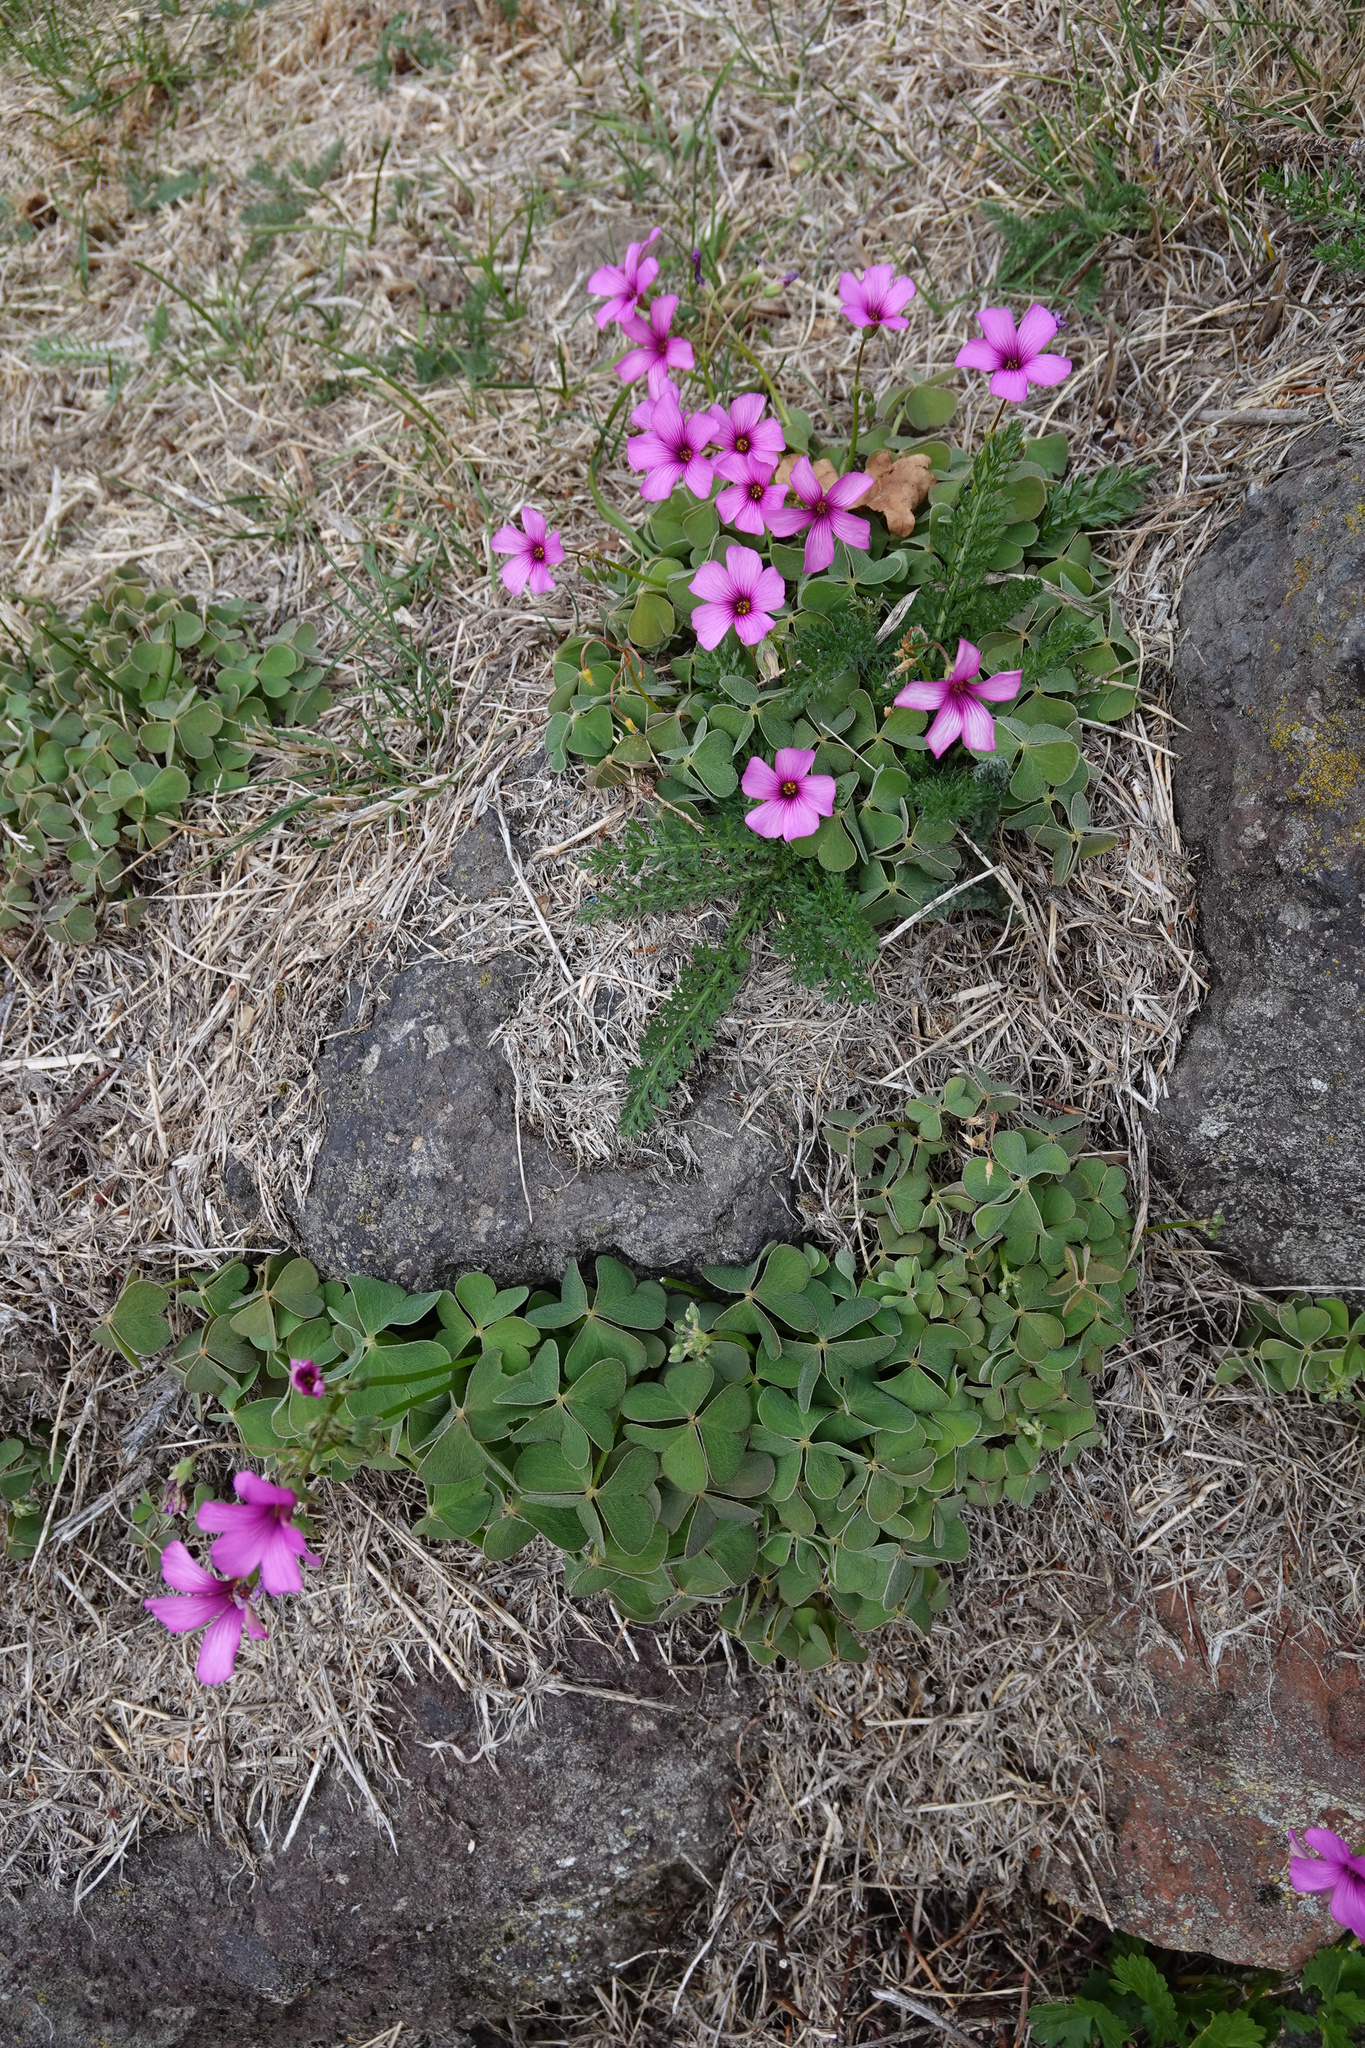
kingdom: Plantae
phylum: Tracheophyta
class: Magnoliopsida
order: Oxalidales
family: Oxalidaceae
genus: Oxalis
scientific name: Oxalis articulata
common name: Pink-sorrel
